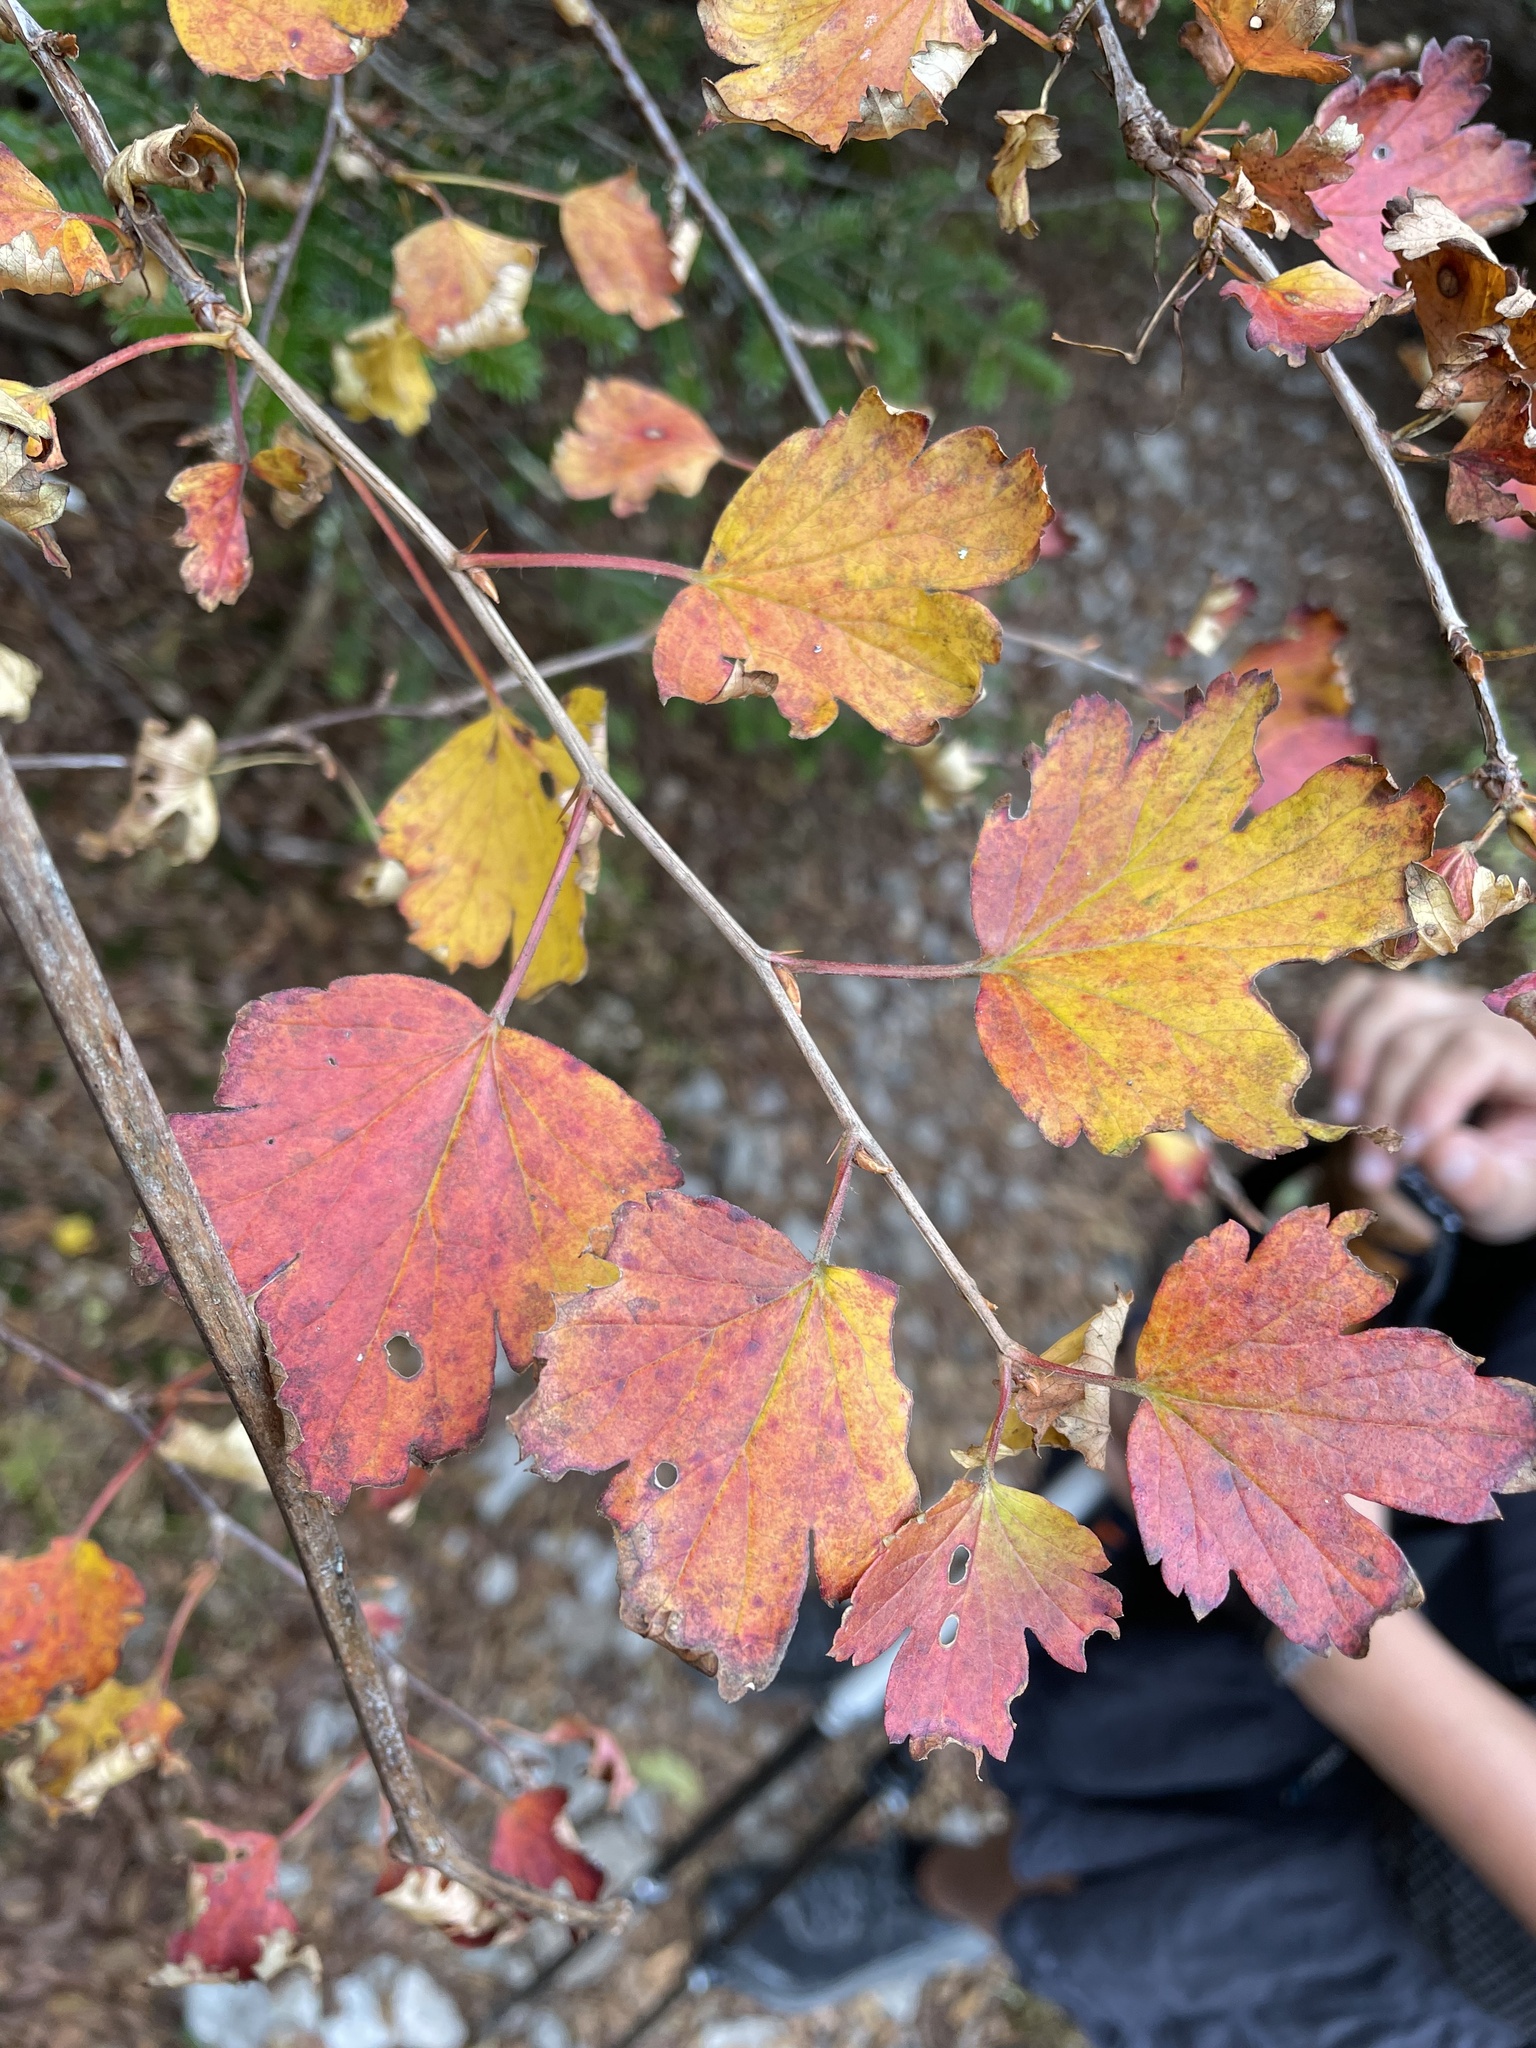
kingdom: Plantae
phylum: Tracheophyta
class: Magnoliopsida
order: Rosales
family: Rosaceae
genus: Physocarpus
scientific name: Physocarpus opulifolius
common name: Ninebark
